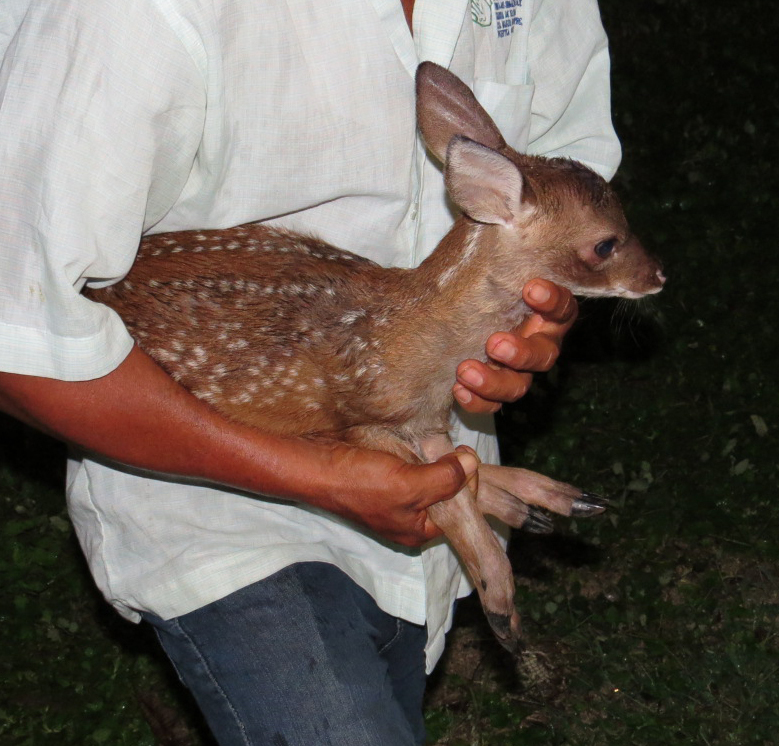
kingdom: Animalia
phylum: Chordata
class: Mammalia
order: Artiodactyla
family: Cervidae
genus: Odocoileus
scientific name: Odocoileus virginianus
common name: White-tailed deer
